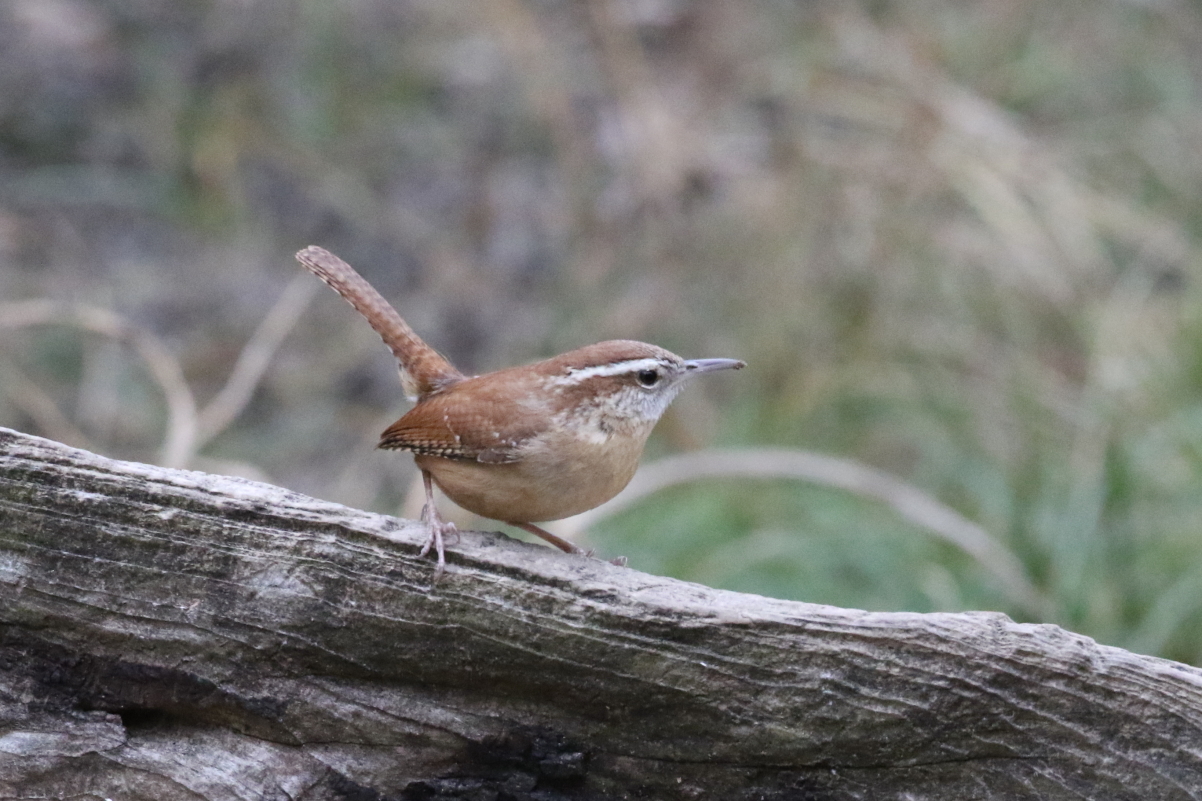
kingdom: Animalia
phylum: Chordata
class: Aves
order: Passeriformes
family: Troglodytidae
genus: Thryothorus
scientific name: Thryothorus ludovicianus
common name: Carolina wren
